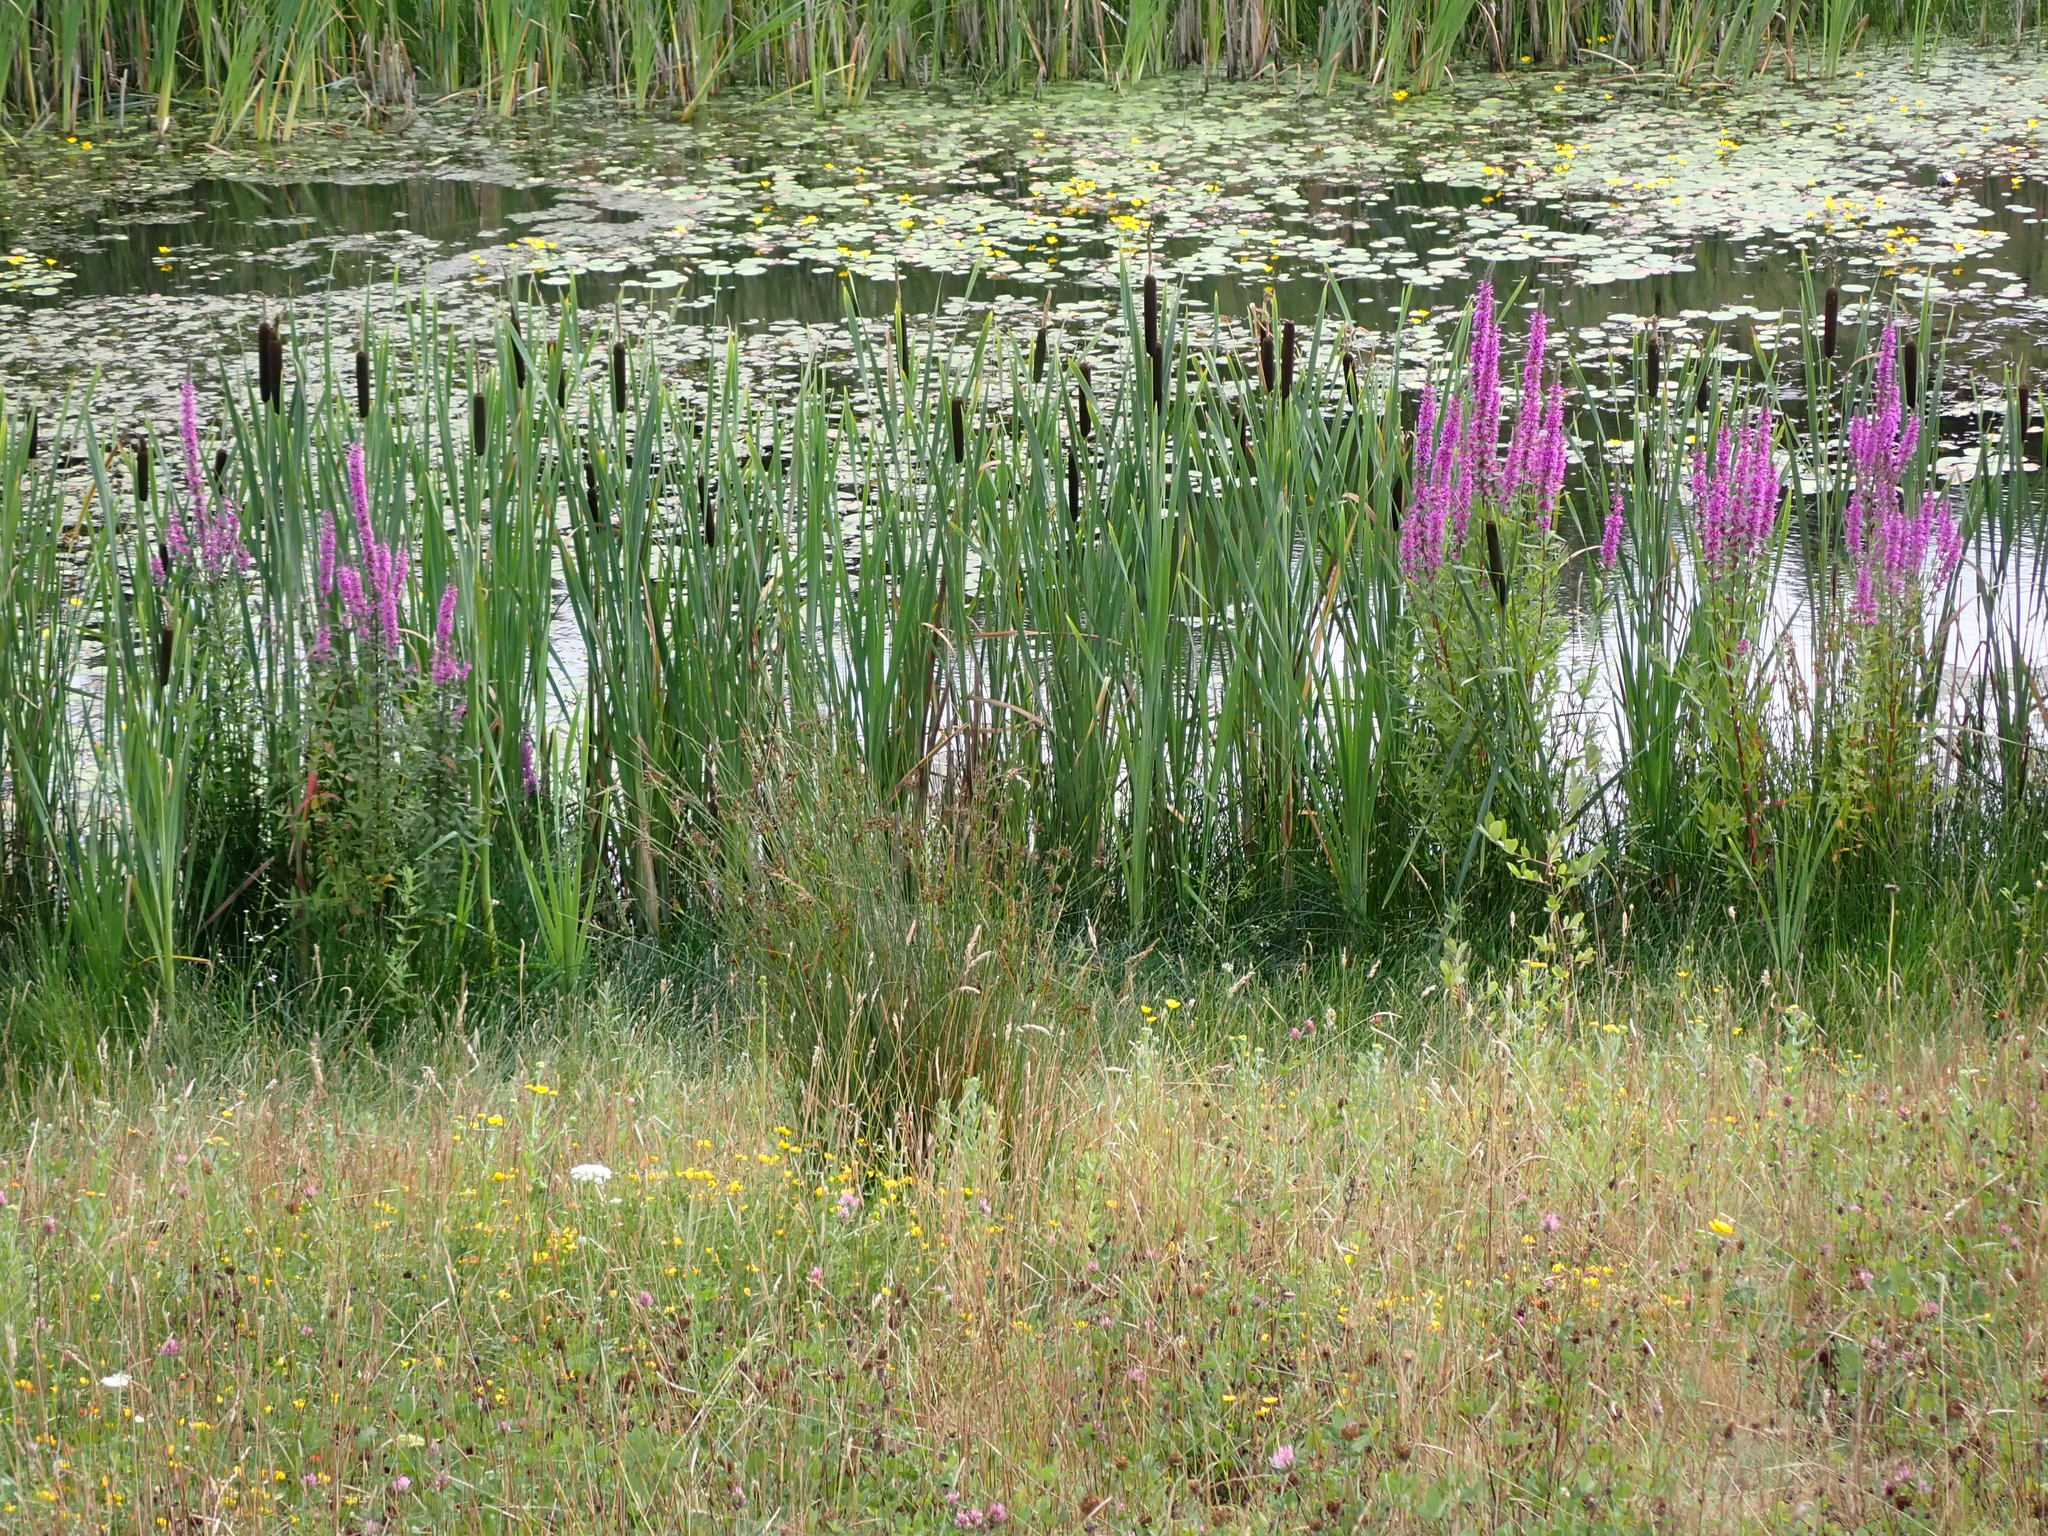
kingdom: Plantae
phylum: Tracheophyta
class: Magnoliopsida
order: Myrtales
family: Lythraceae
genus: Lythrum
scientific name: Lythrum salicaria
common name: Purple loosestrife
